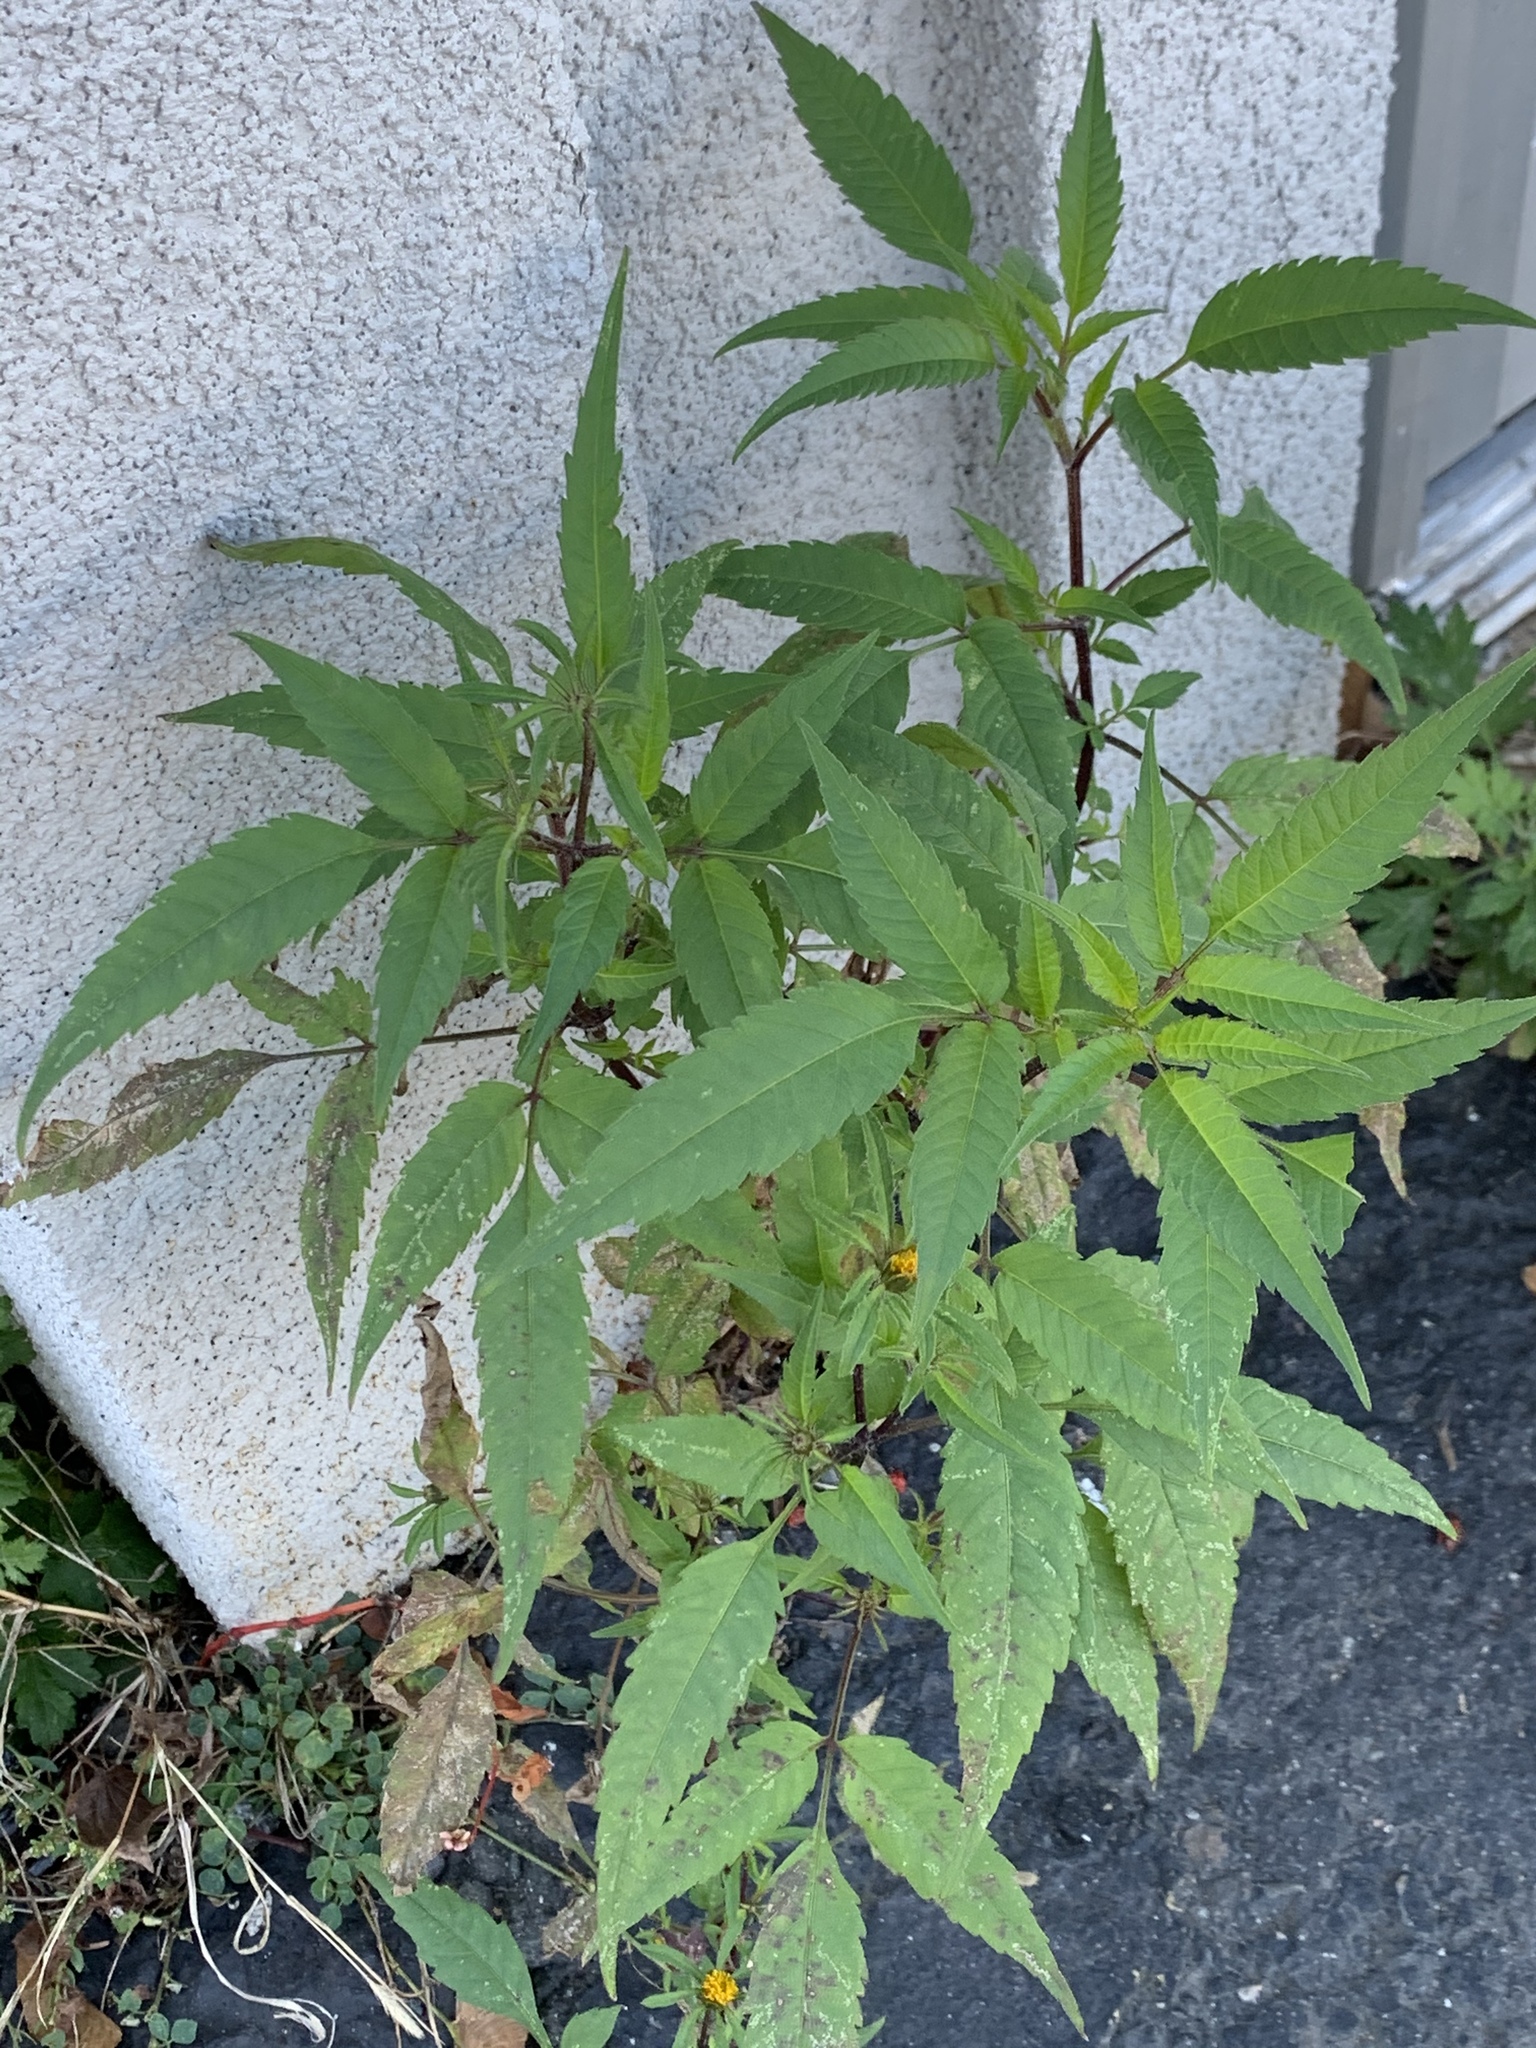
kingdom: Plantae
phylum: Tracheophyta
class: Magnoliopsida
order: Asterales
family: Asteraceae
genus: Bidens
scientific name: Bidens frondosa
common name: Beggarticks
